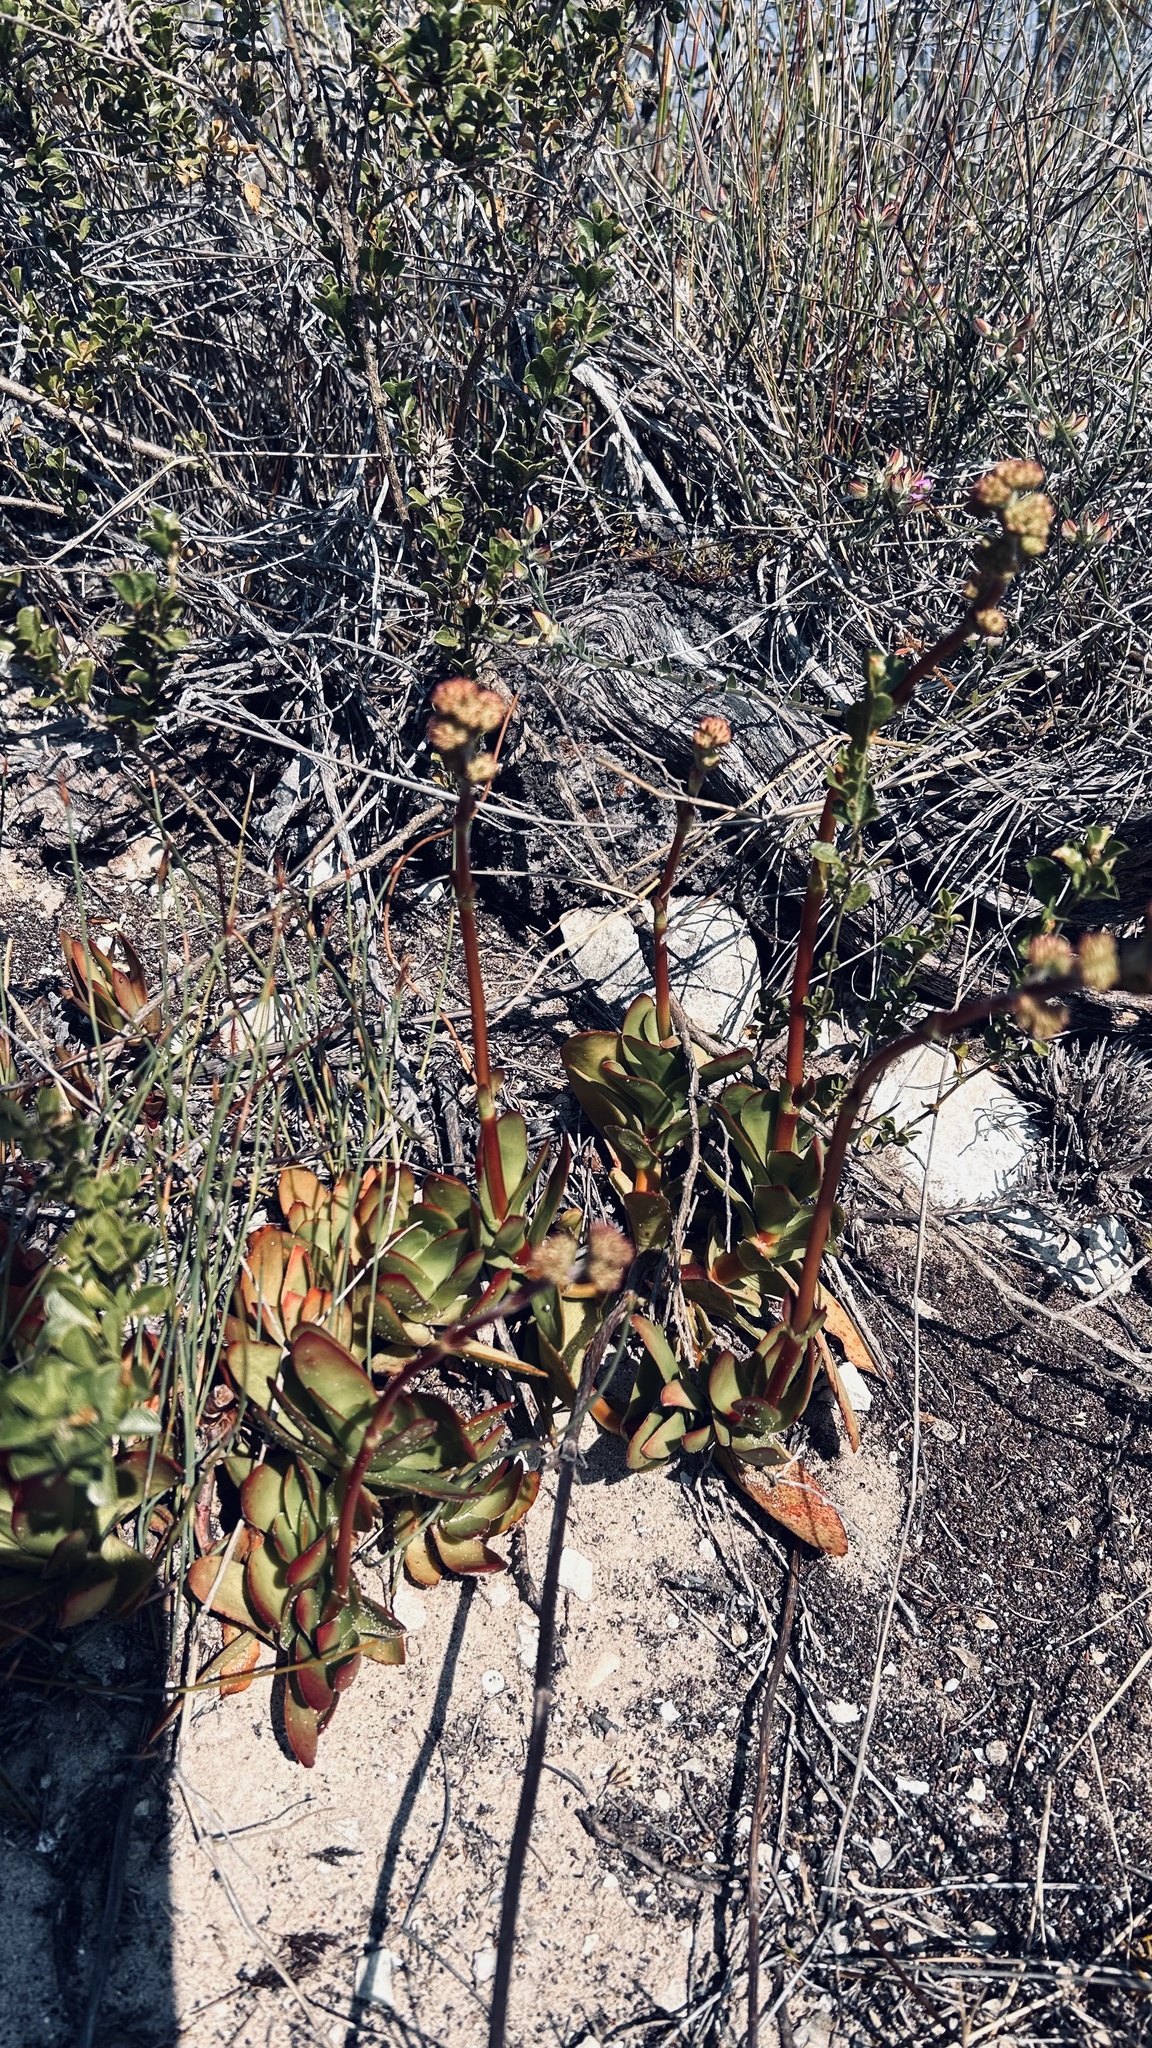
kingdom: Plantae
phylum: Tracheophyta
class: Magnoliopsida
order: Saxifragales
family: Crassulaceae
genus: Crassula
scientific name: Crassula nudicaulis
